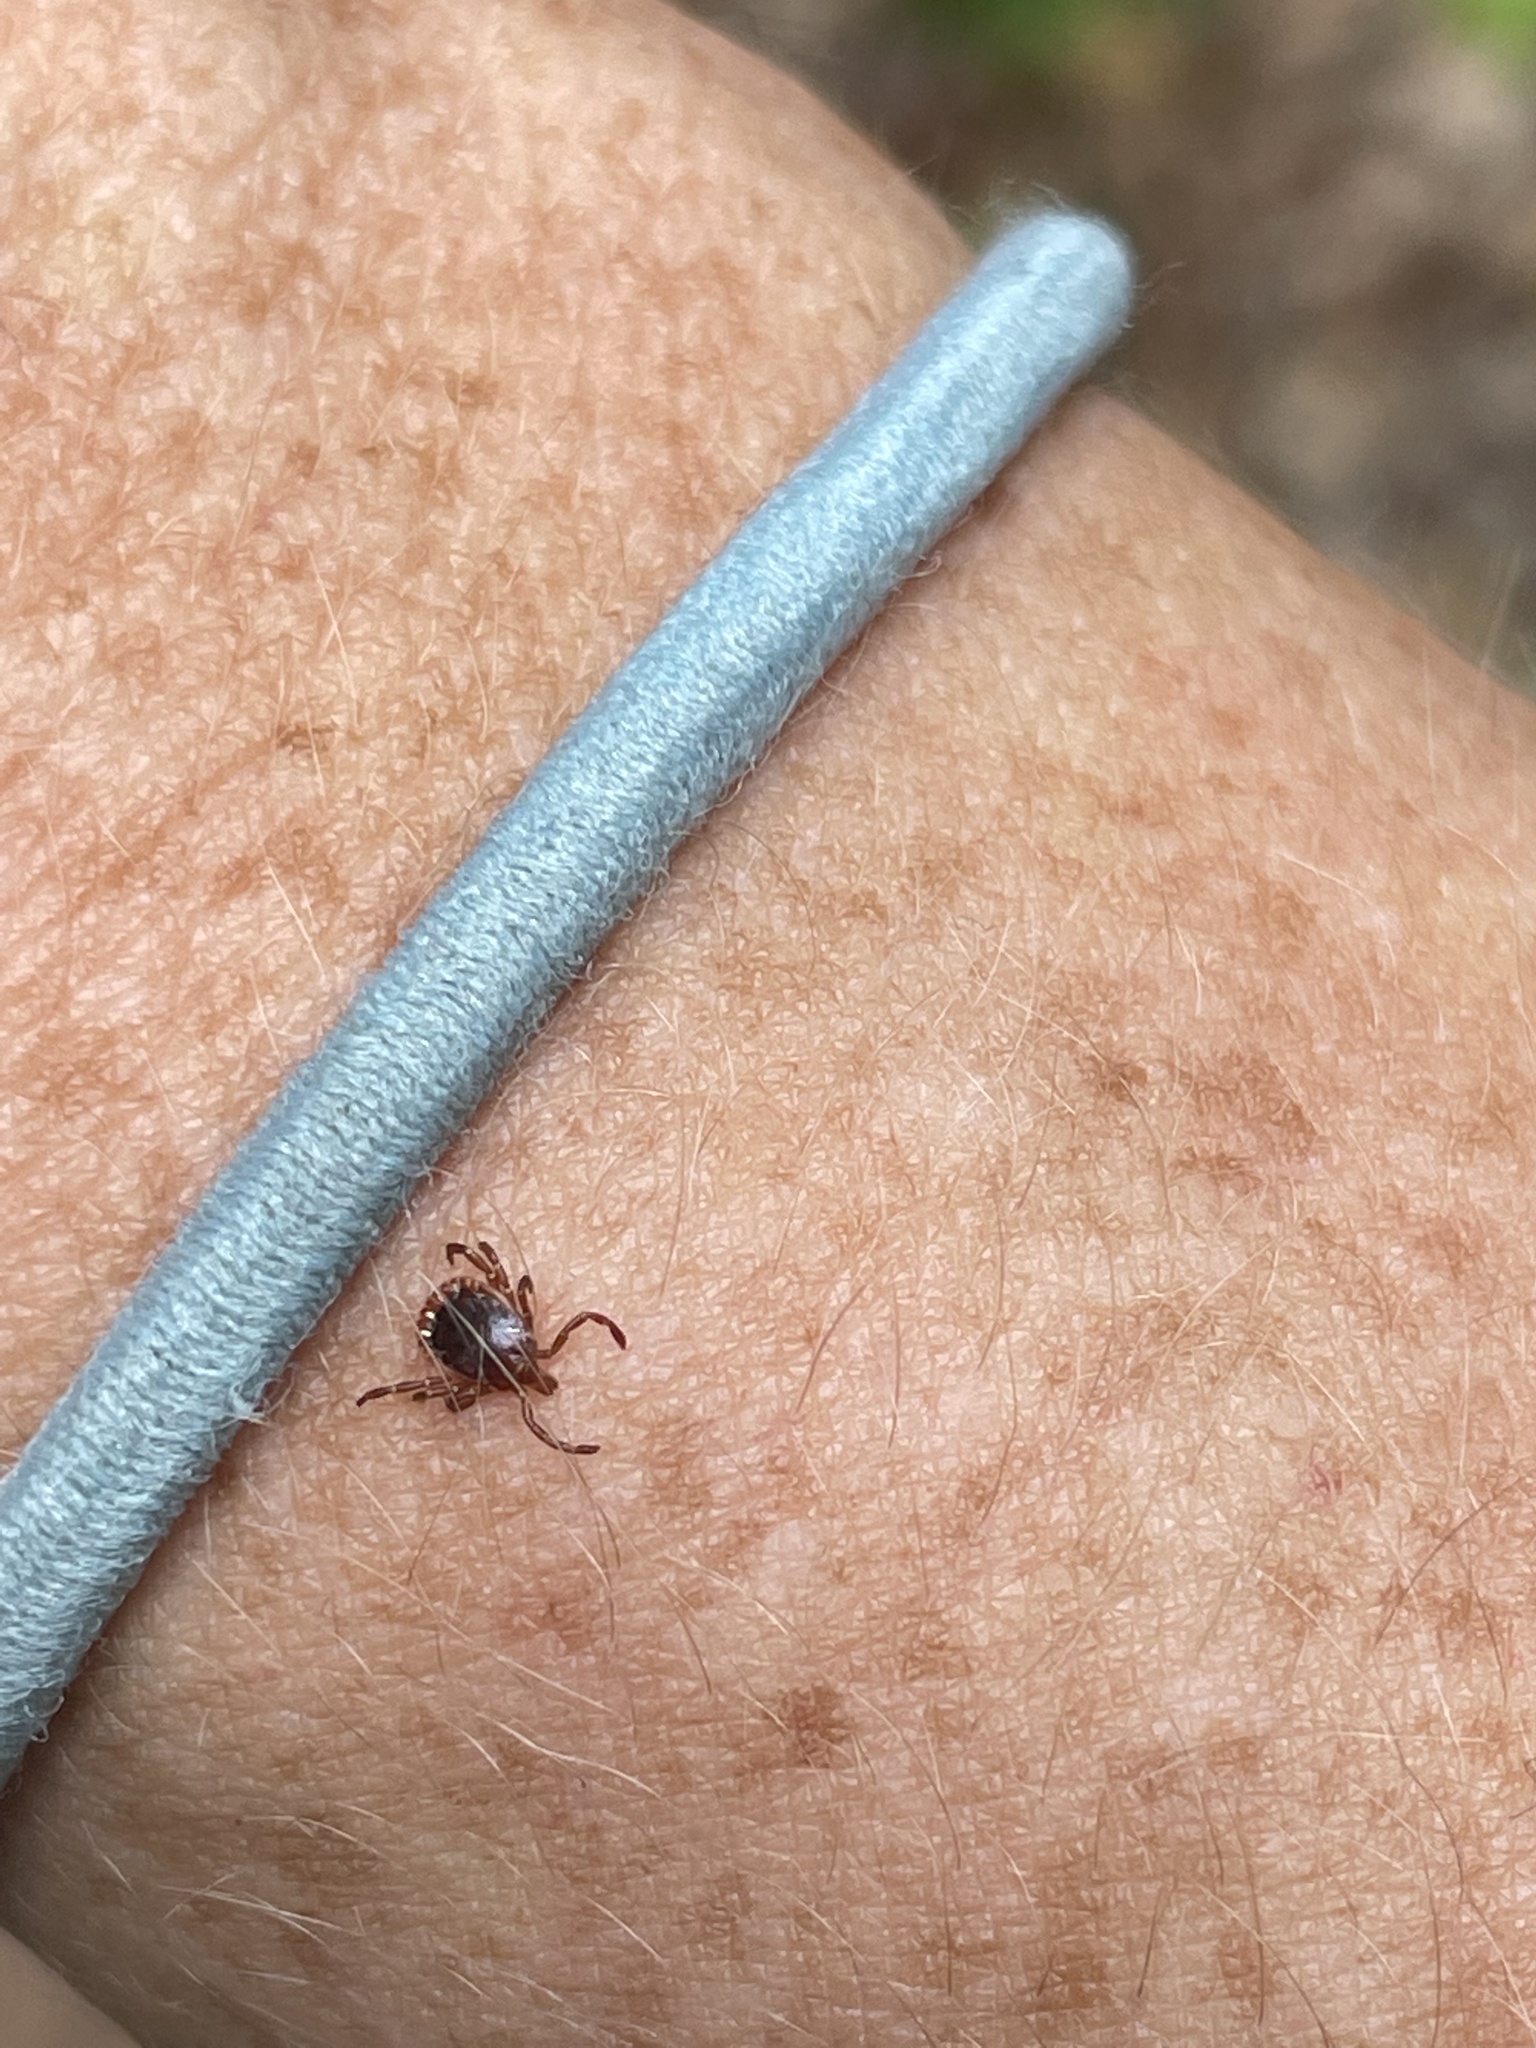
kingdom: Animalia
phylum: Arthropoda
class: Arachnida
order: Ixodida
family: Ixodidae
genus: Amblyomma
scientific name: Amblyomma americanum
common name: Lone star tick
